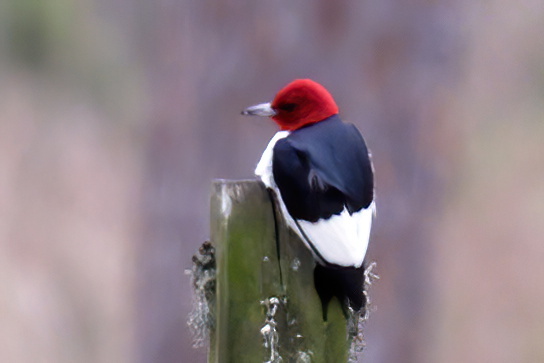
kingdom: Animalia
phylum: Chordata
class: Aves
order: Piciformes
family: Picidae
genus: Melanerpes
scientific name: Melanerpes erythrocephalus
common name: Red-headed woodpecker
